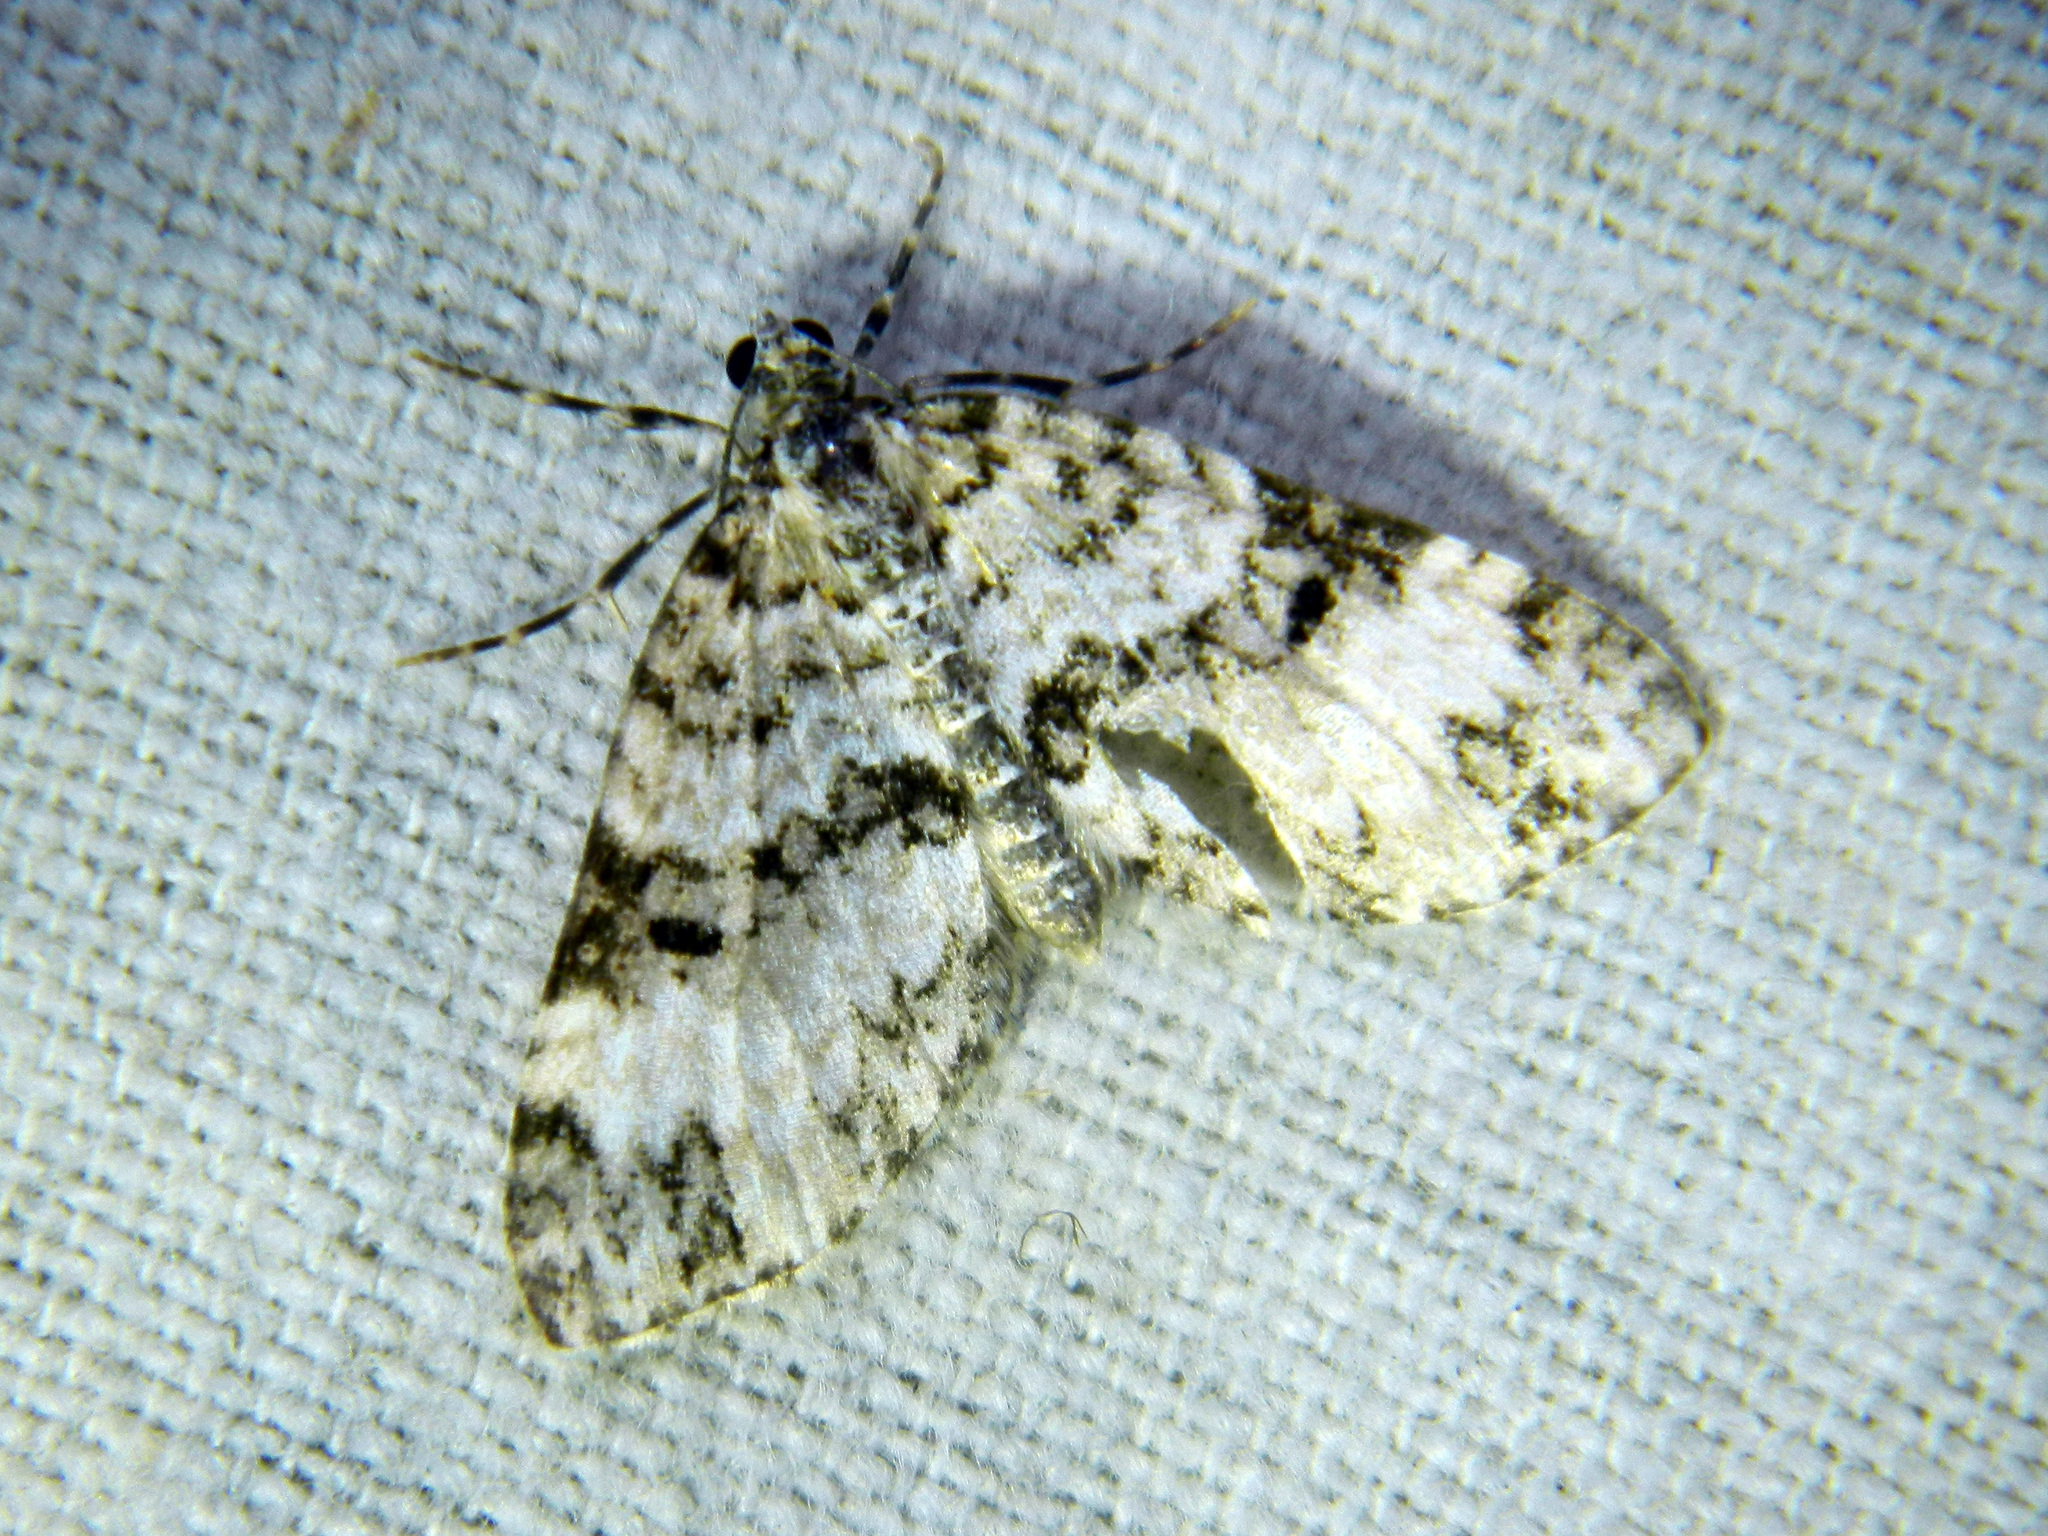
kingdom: Animalia
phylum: Arthropoda
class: Insecta
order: Lepidoptera
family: Geometridae
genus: Spargania
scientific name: Spargania magnoliata
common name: Double-banded carpet
